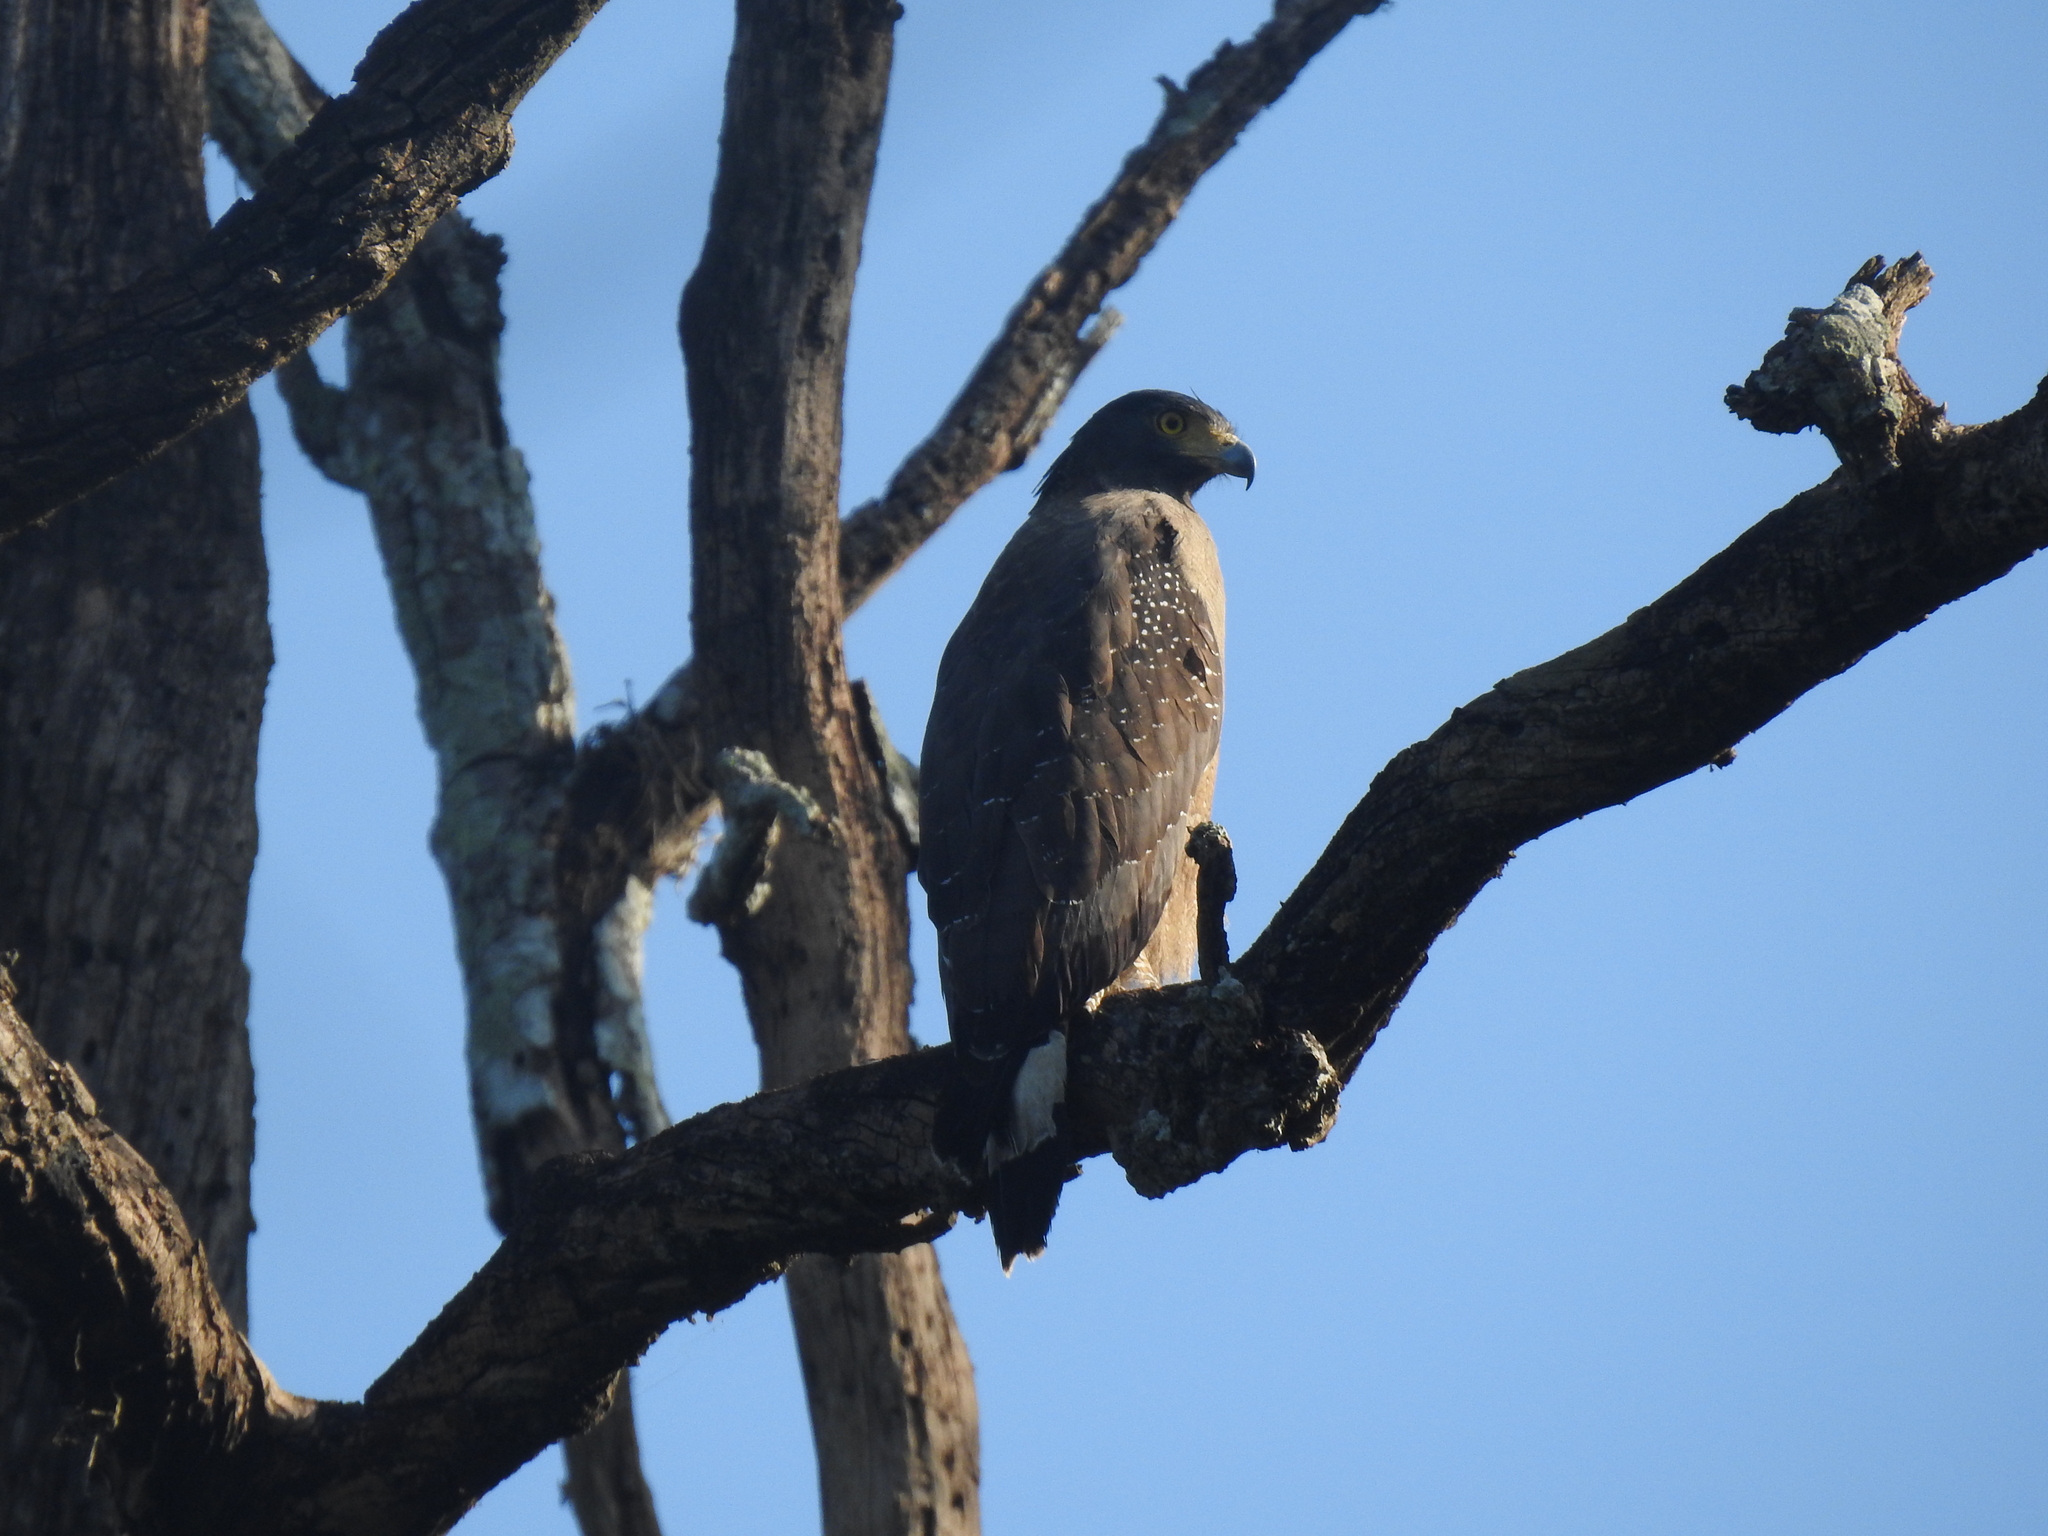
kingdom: Animalia
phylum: Chordata
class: Aves
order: Accipitriformes
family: Accipitridae
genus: Spilornis
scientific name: Spilornis cheela
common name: Crested serpent eagle
